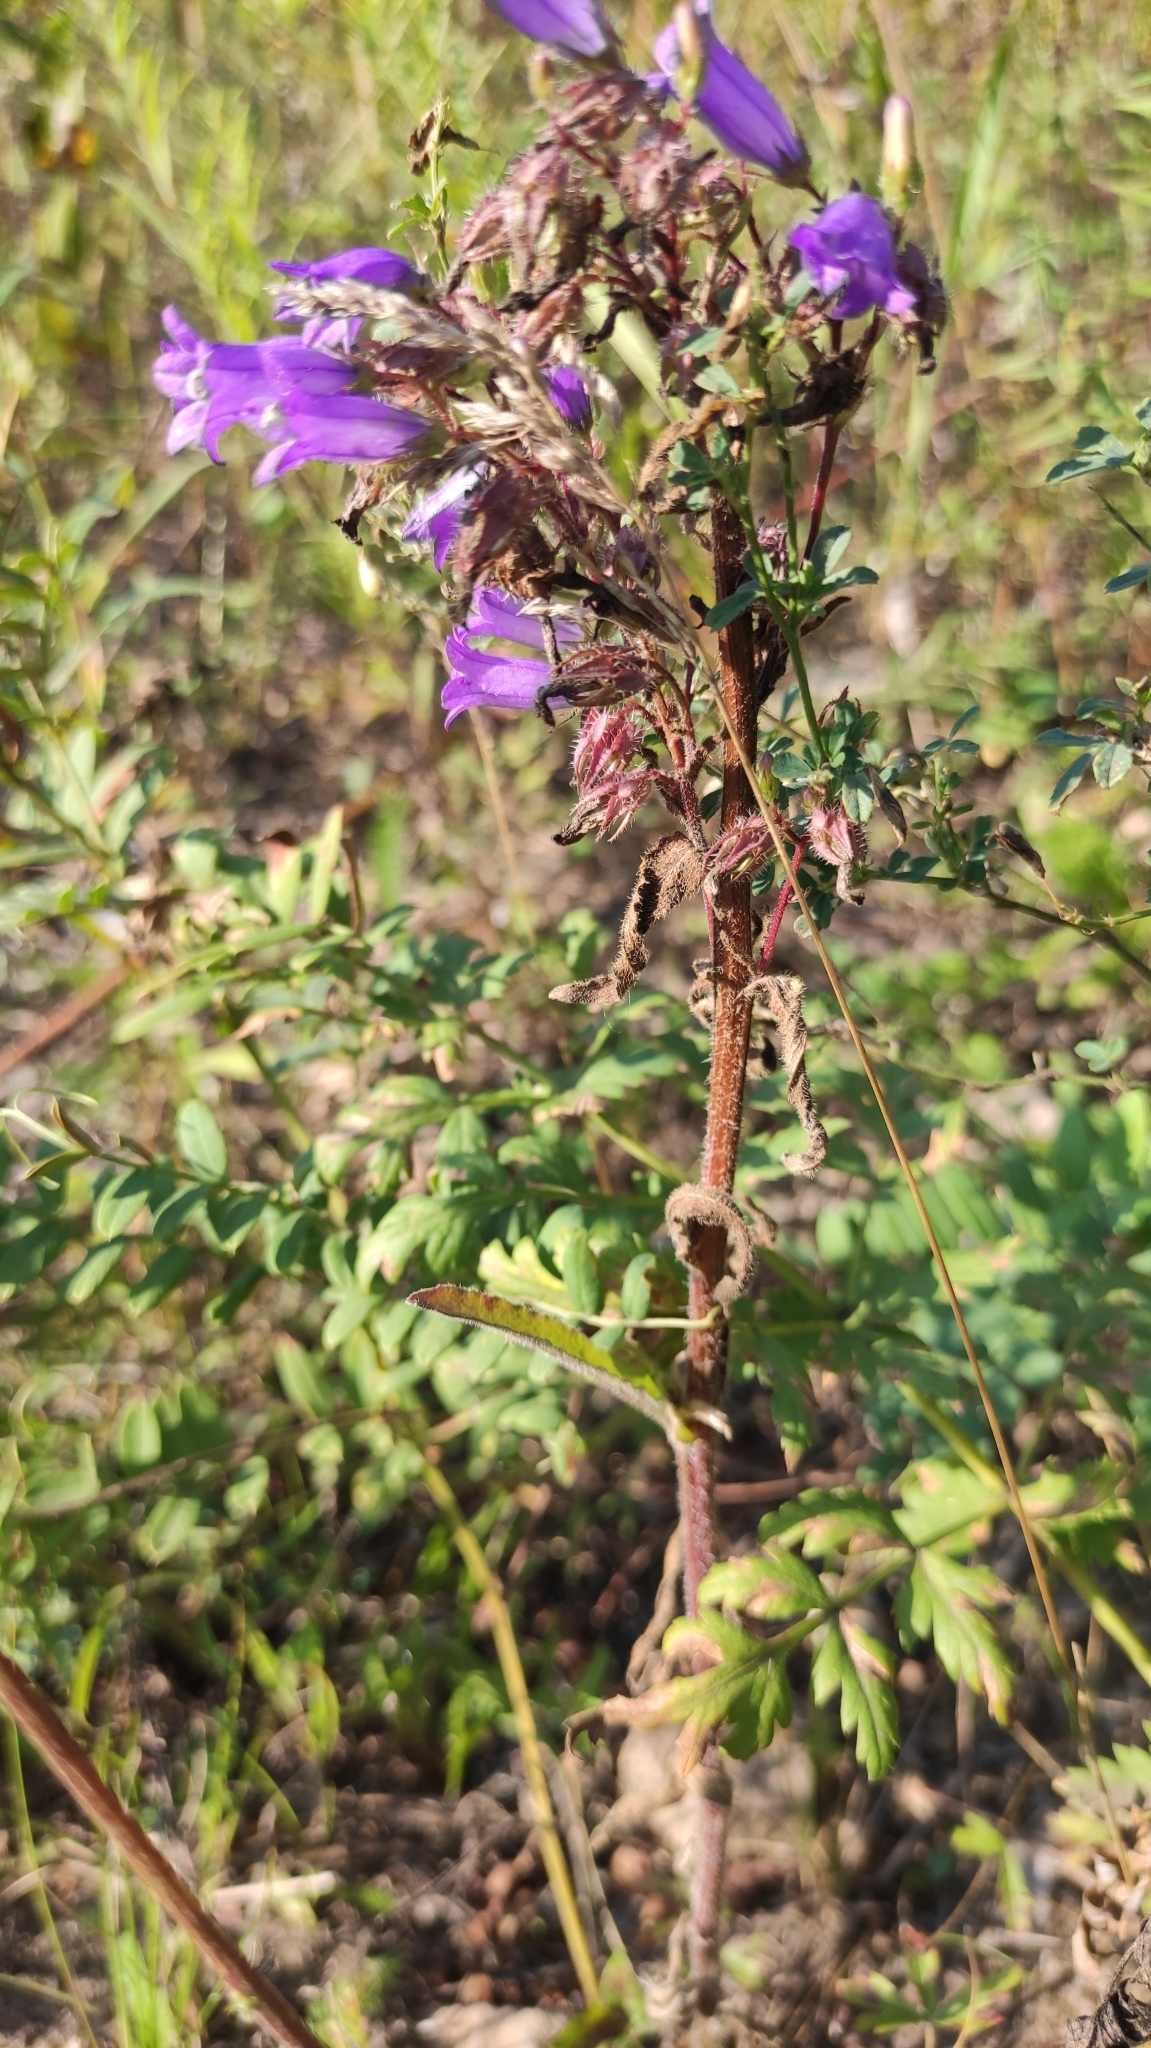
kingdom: Plantae
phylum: Tracheophyta
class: Magnoliopsida
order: Asterales
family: Campanulaceae
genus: Campanula
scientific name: Campanula sibirica
